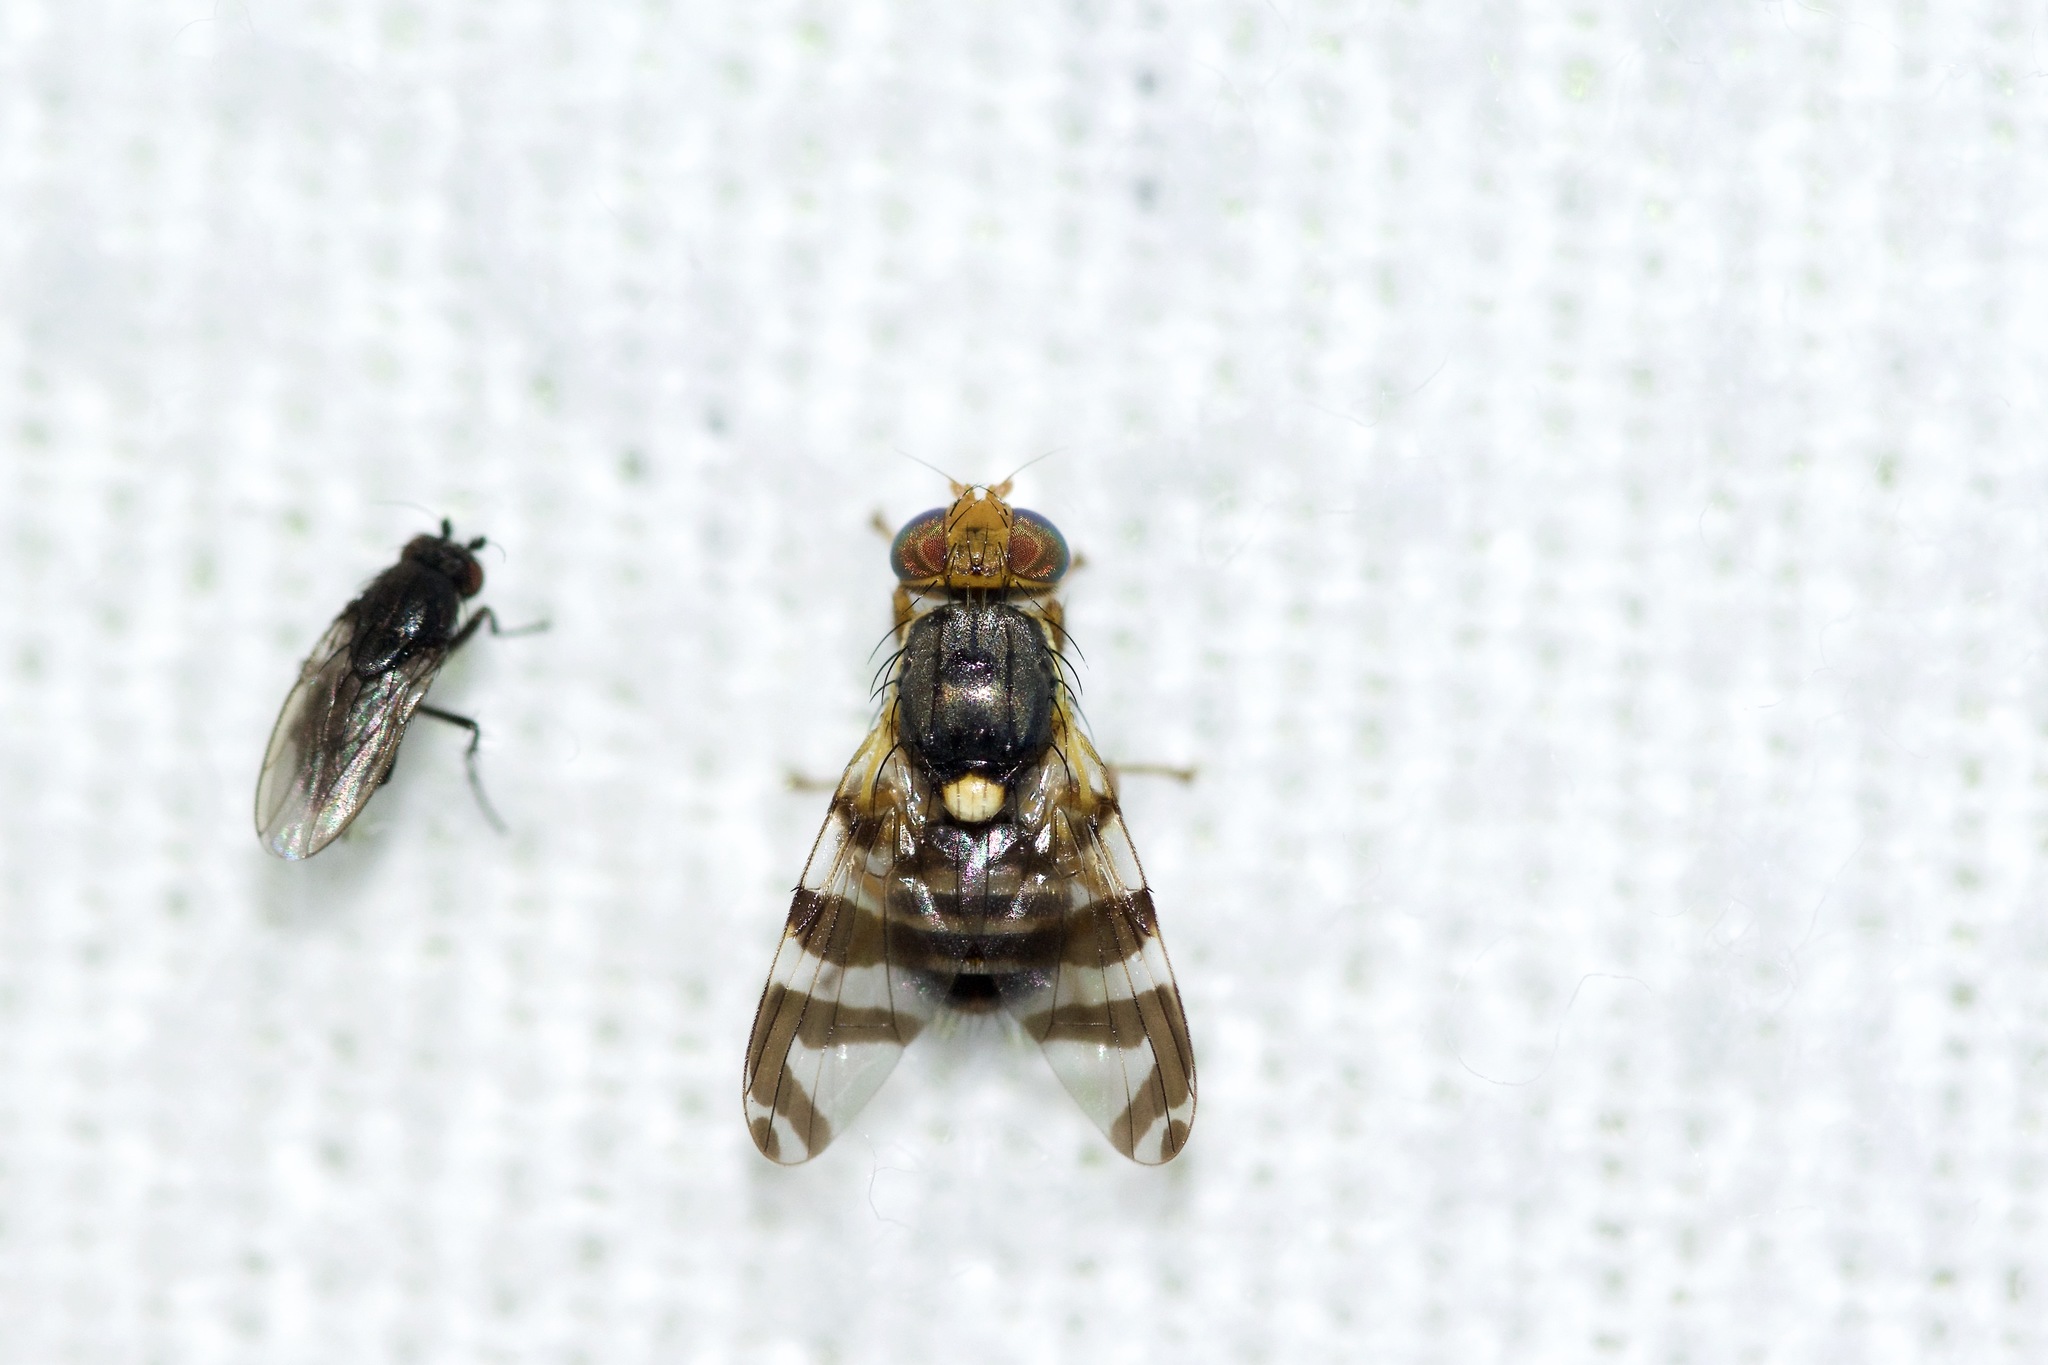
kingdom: Animalia
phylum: Arthropoda
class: Insecta
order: Diptera
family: Tephritidae
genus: Rhagoletis
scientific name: Rhagoletis cingulata
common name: North american cherry fruit fly
